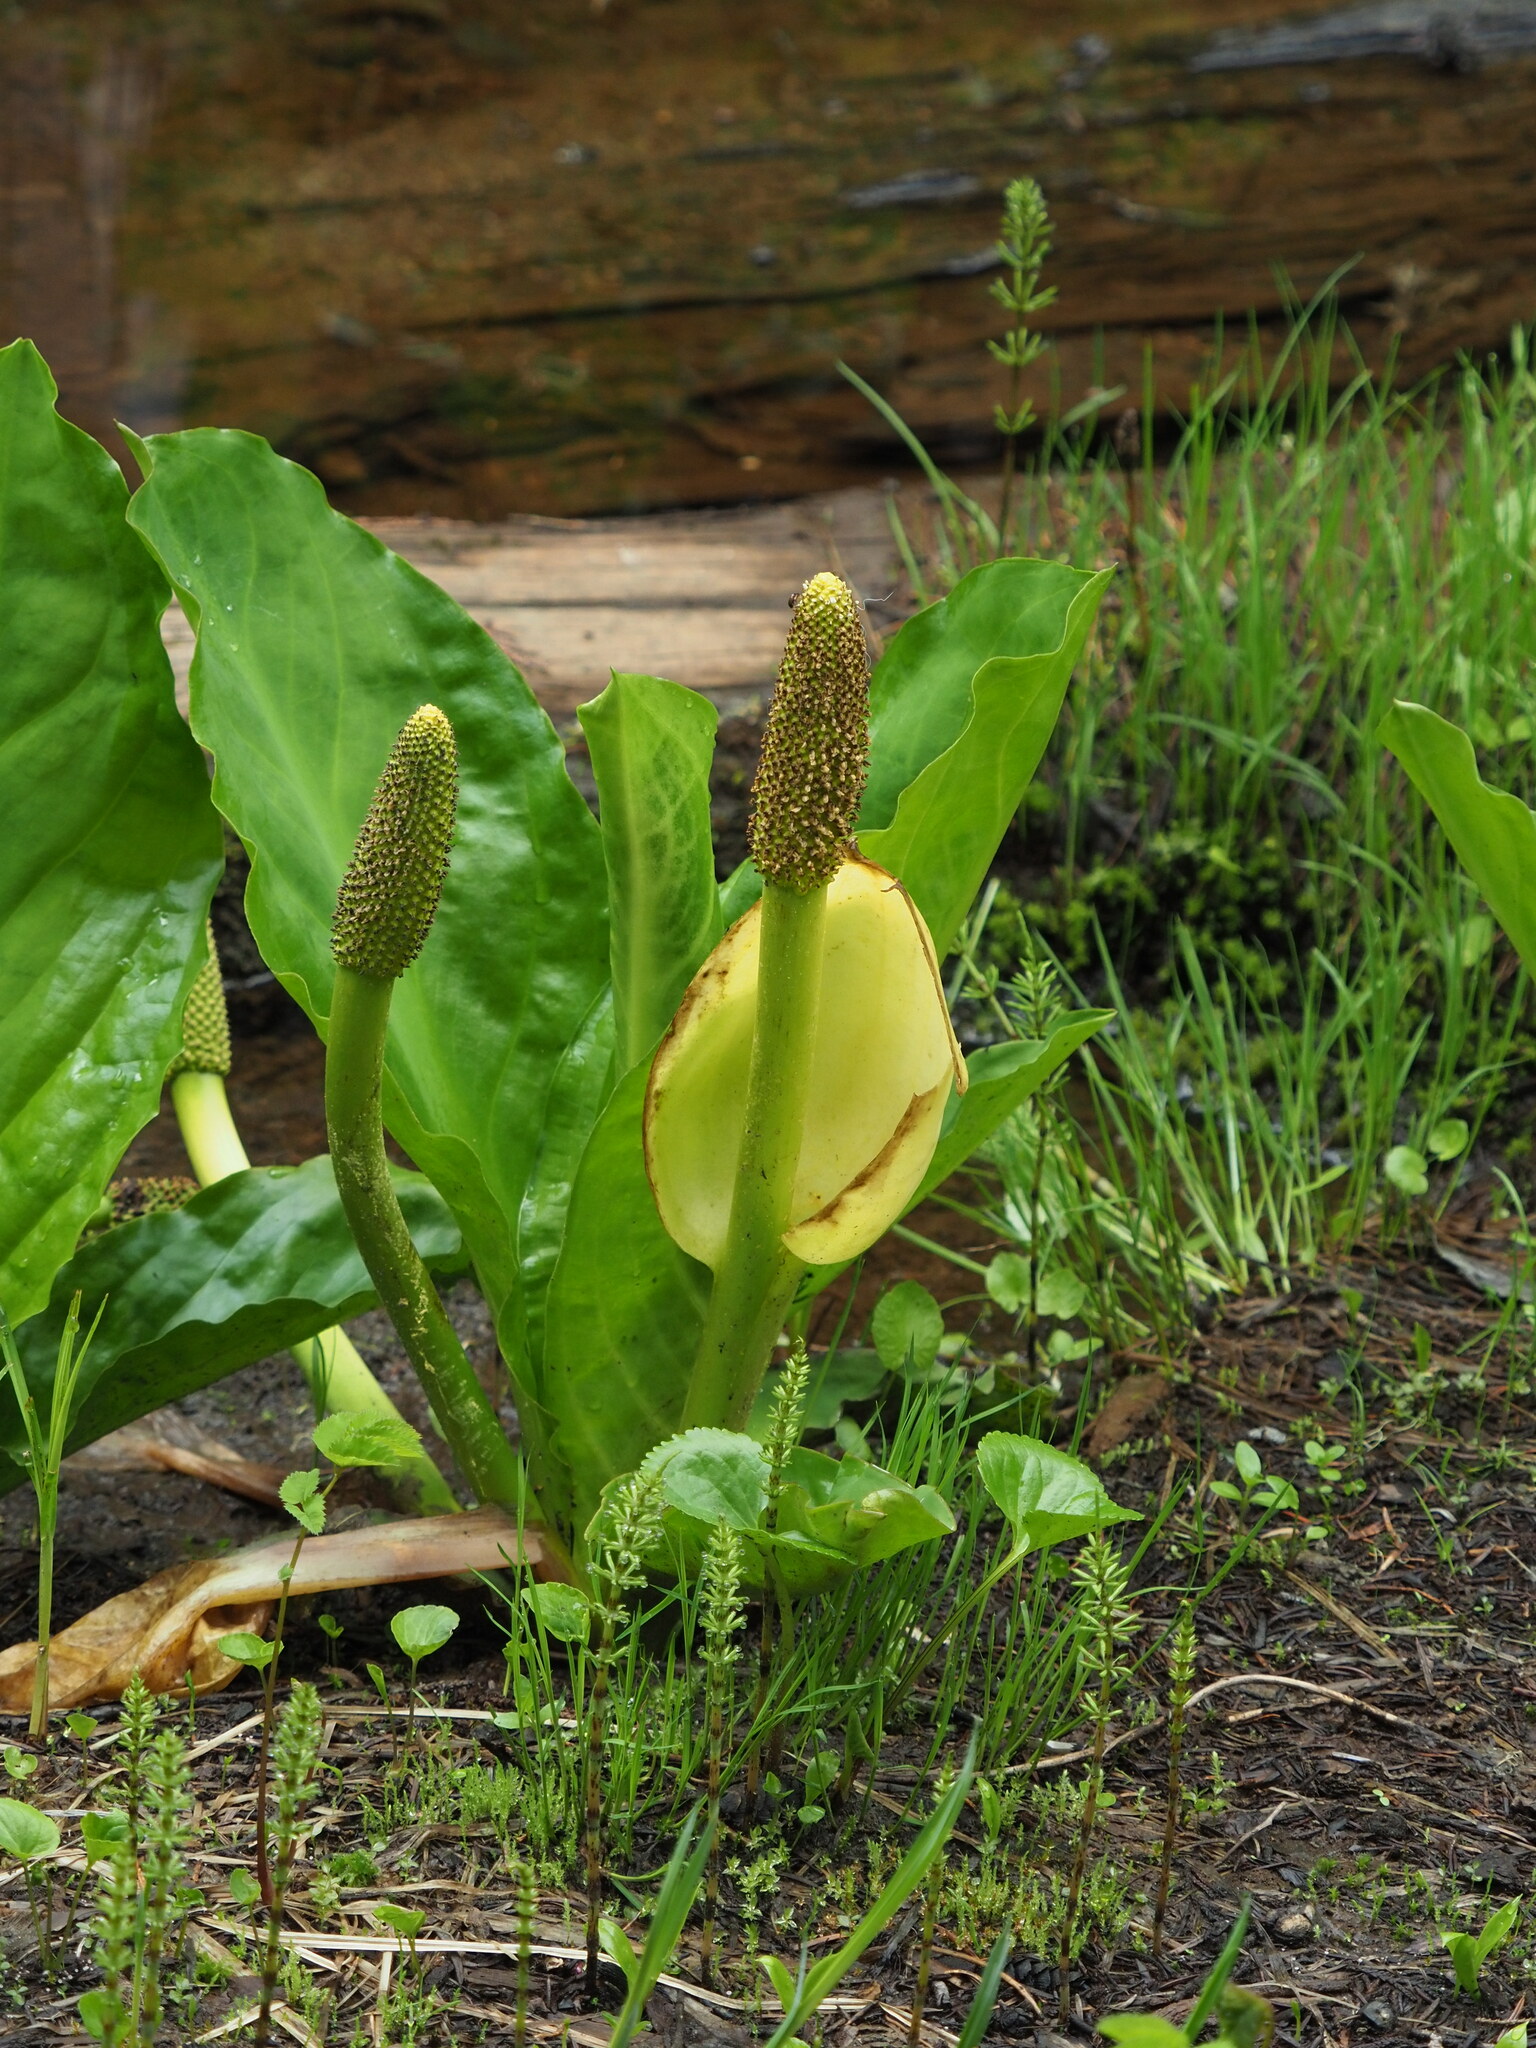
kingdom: Plantae
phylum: Tracheophyta
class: Liliopsida
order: Alismatales
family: Araceae
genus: Lysichiton
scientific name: Lysichiton americanus
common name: American skunk cabbage
